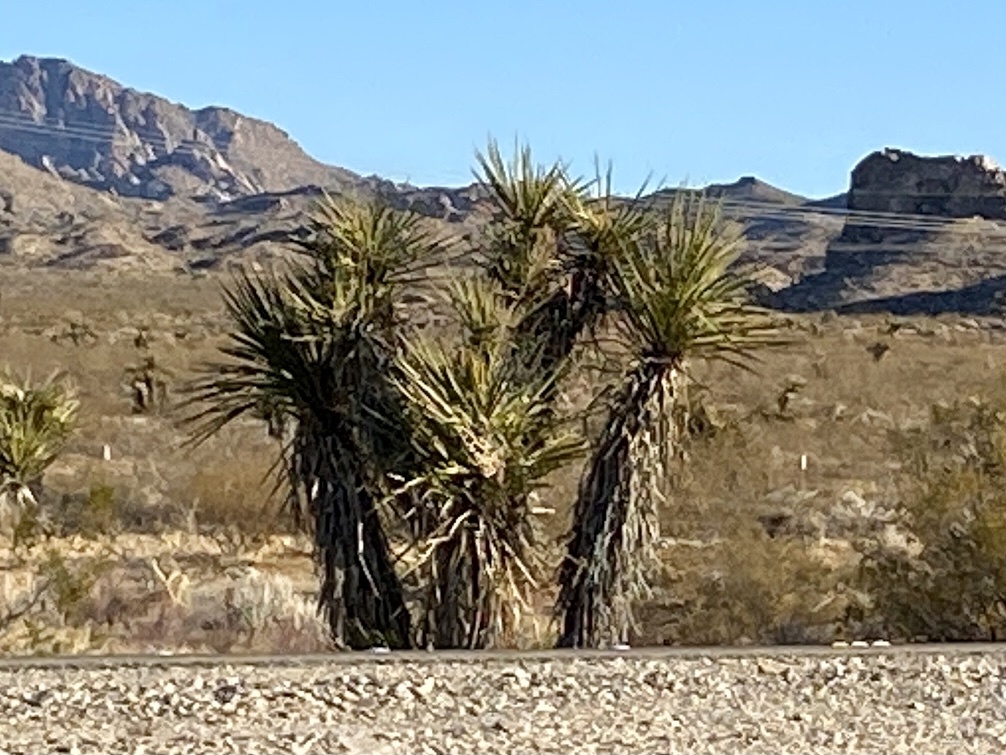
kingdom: Plantae
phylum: Tracheophyta
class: Liliopsida
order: Asparagales
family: Asparagaceae
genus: Yucca
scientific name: Yucca schidigera
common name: Mojave yucca
